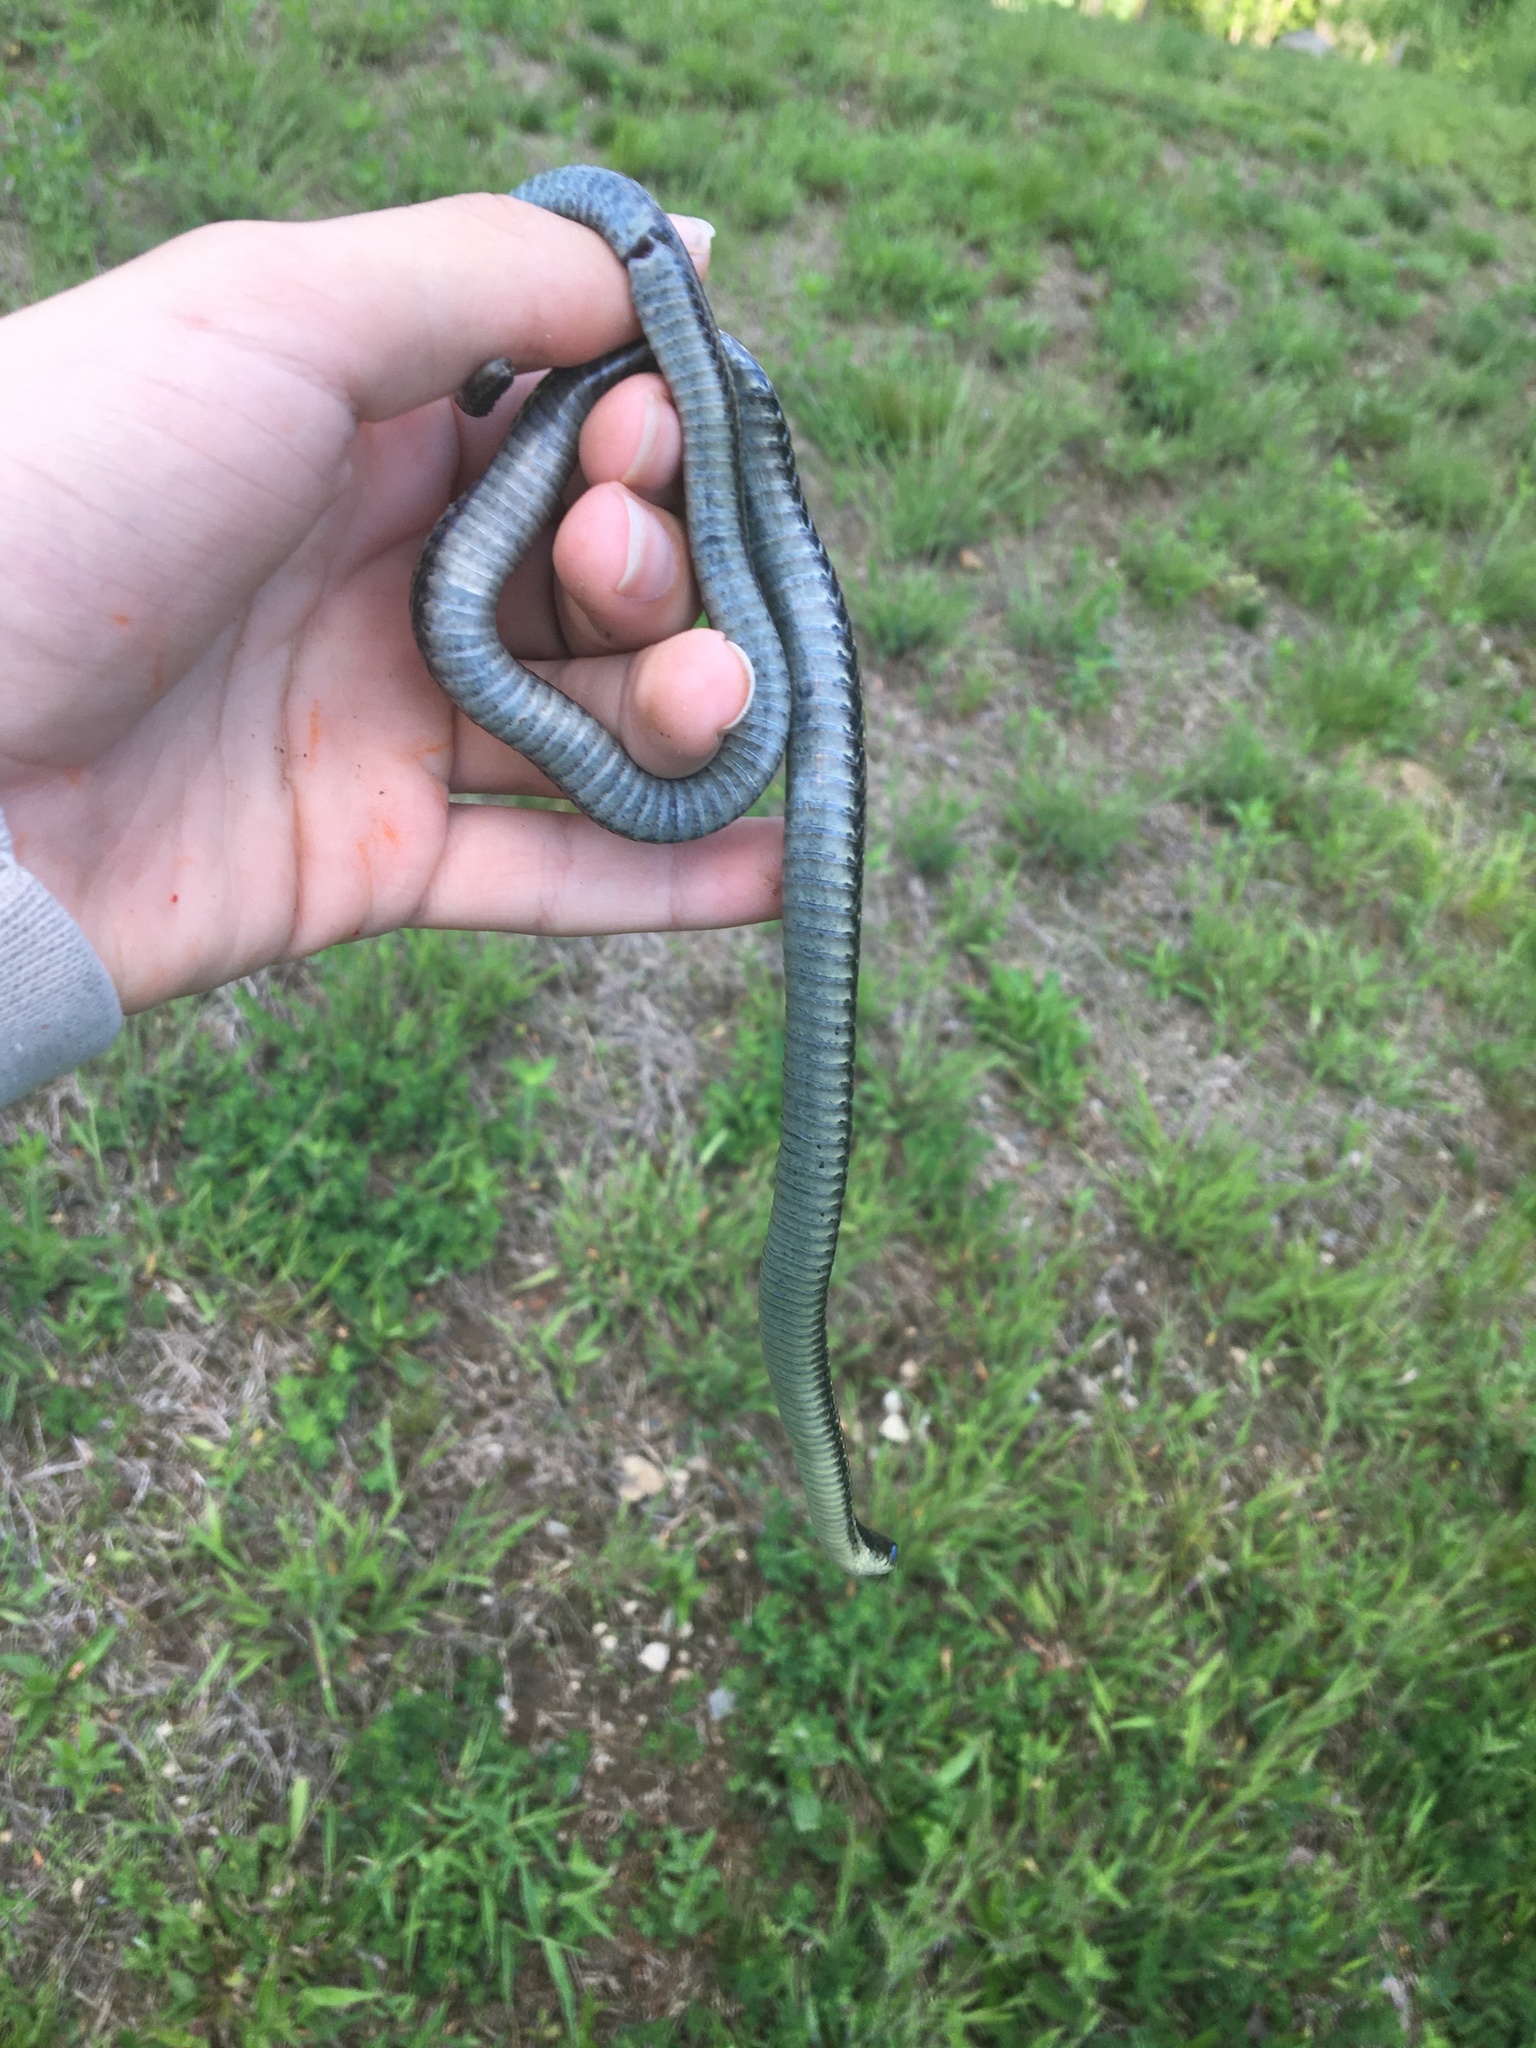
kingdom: Animalia
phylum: Chordata
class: Squamata
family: Colubridae
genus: Thamnophis
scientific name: Thamnophis sirtalis
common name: Common garter snake
